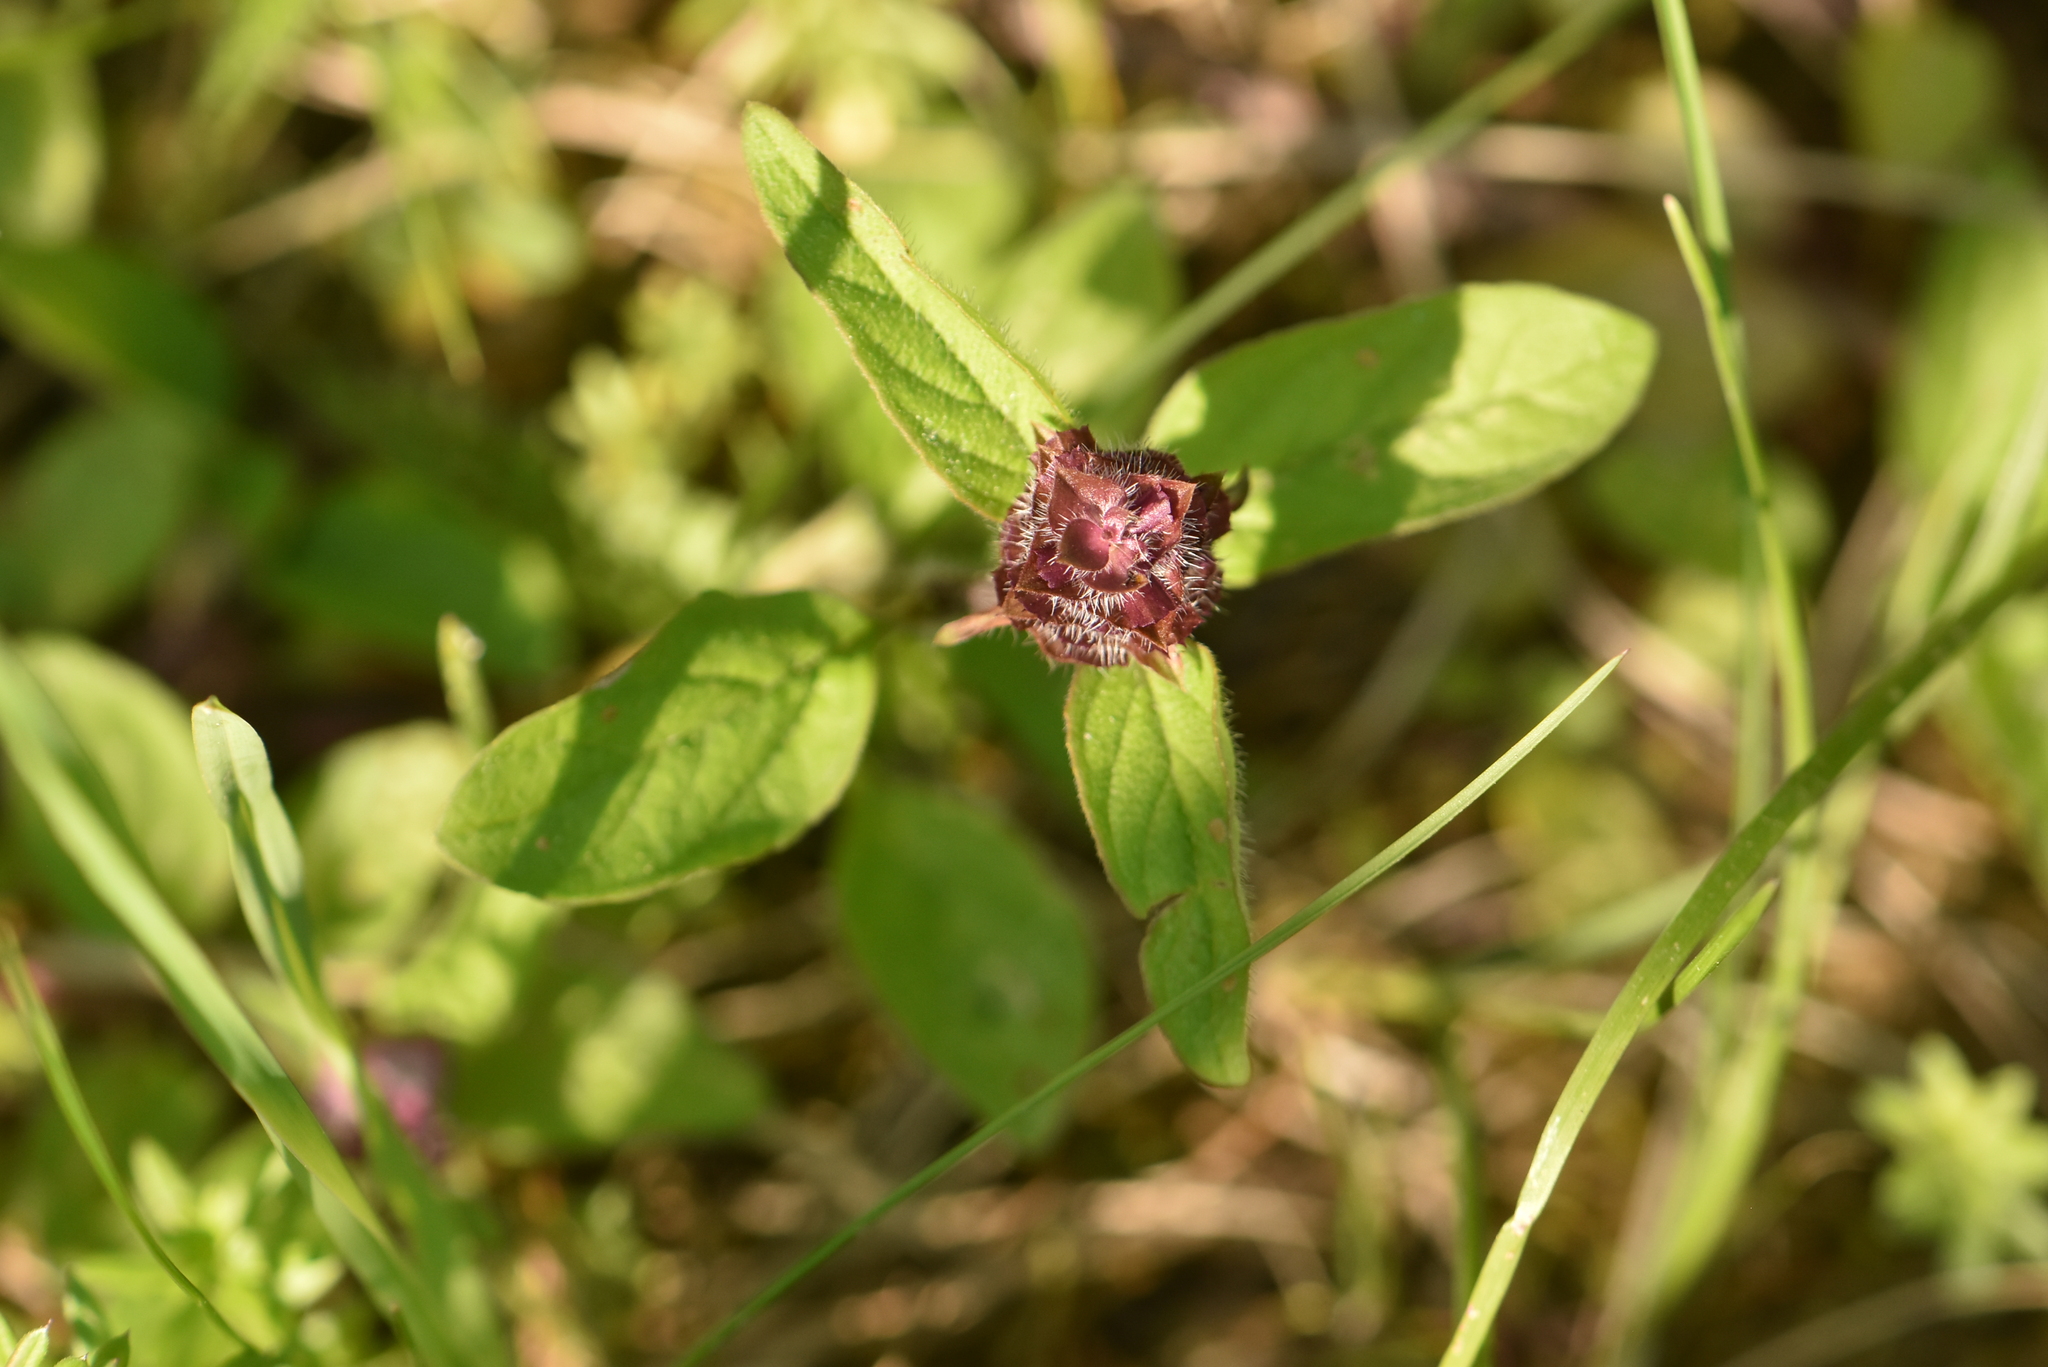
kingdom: Plantae
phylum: Tracheophyta
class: Magnoliopsida
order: Lamiales
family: Lamiaceae
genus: Prunella
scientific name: Prunella vulgaris
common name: Heal-all
